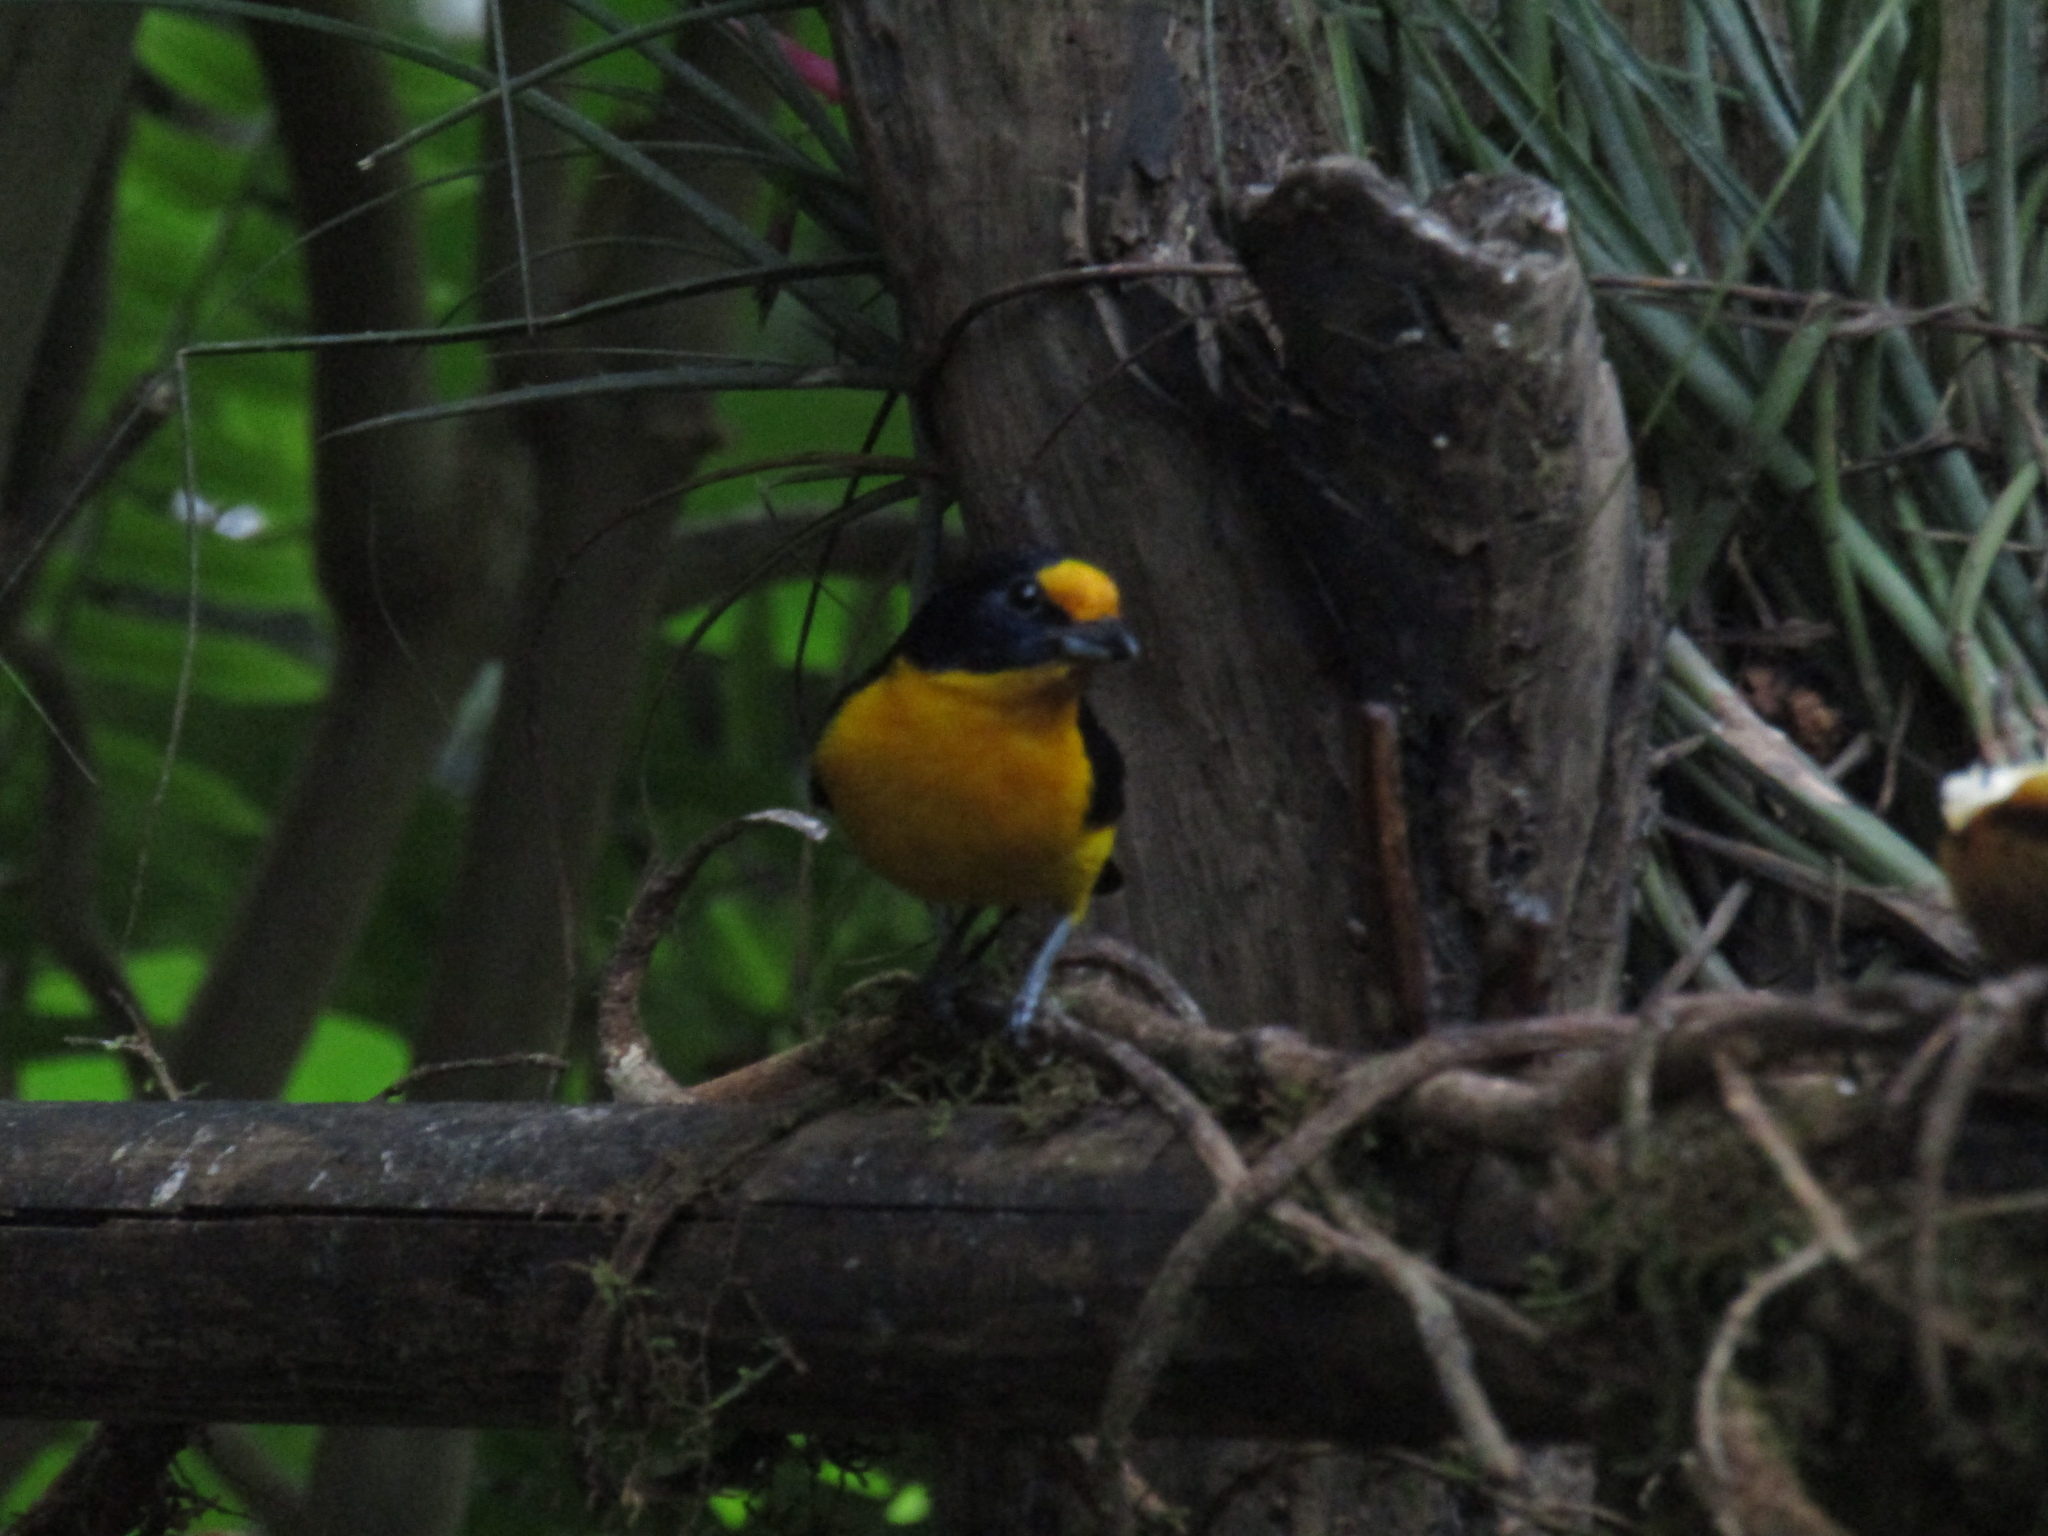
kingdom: Animalia
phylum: Chordata
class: Aves
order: Passeriformes
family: Fringillidae
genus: Euphonia
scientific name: Euphonia violacea
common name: Violaceous euphonia
